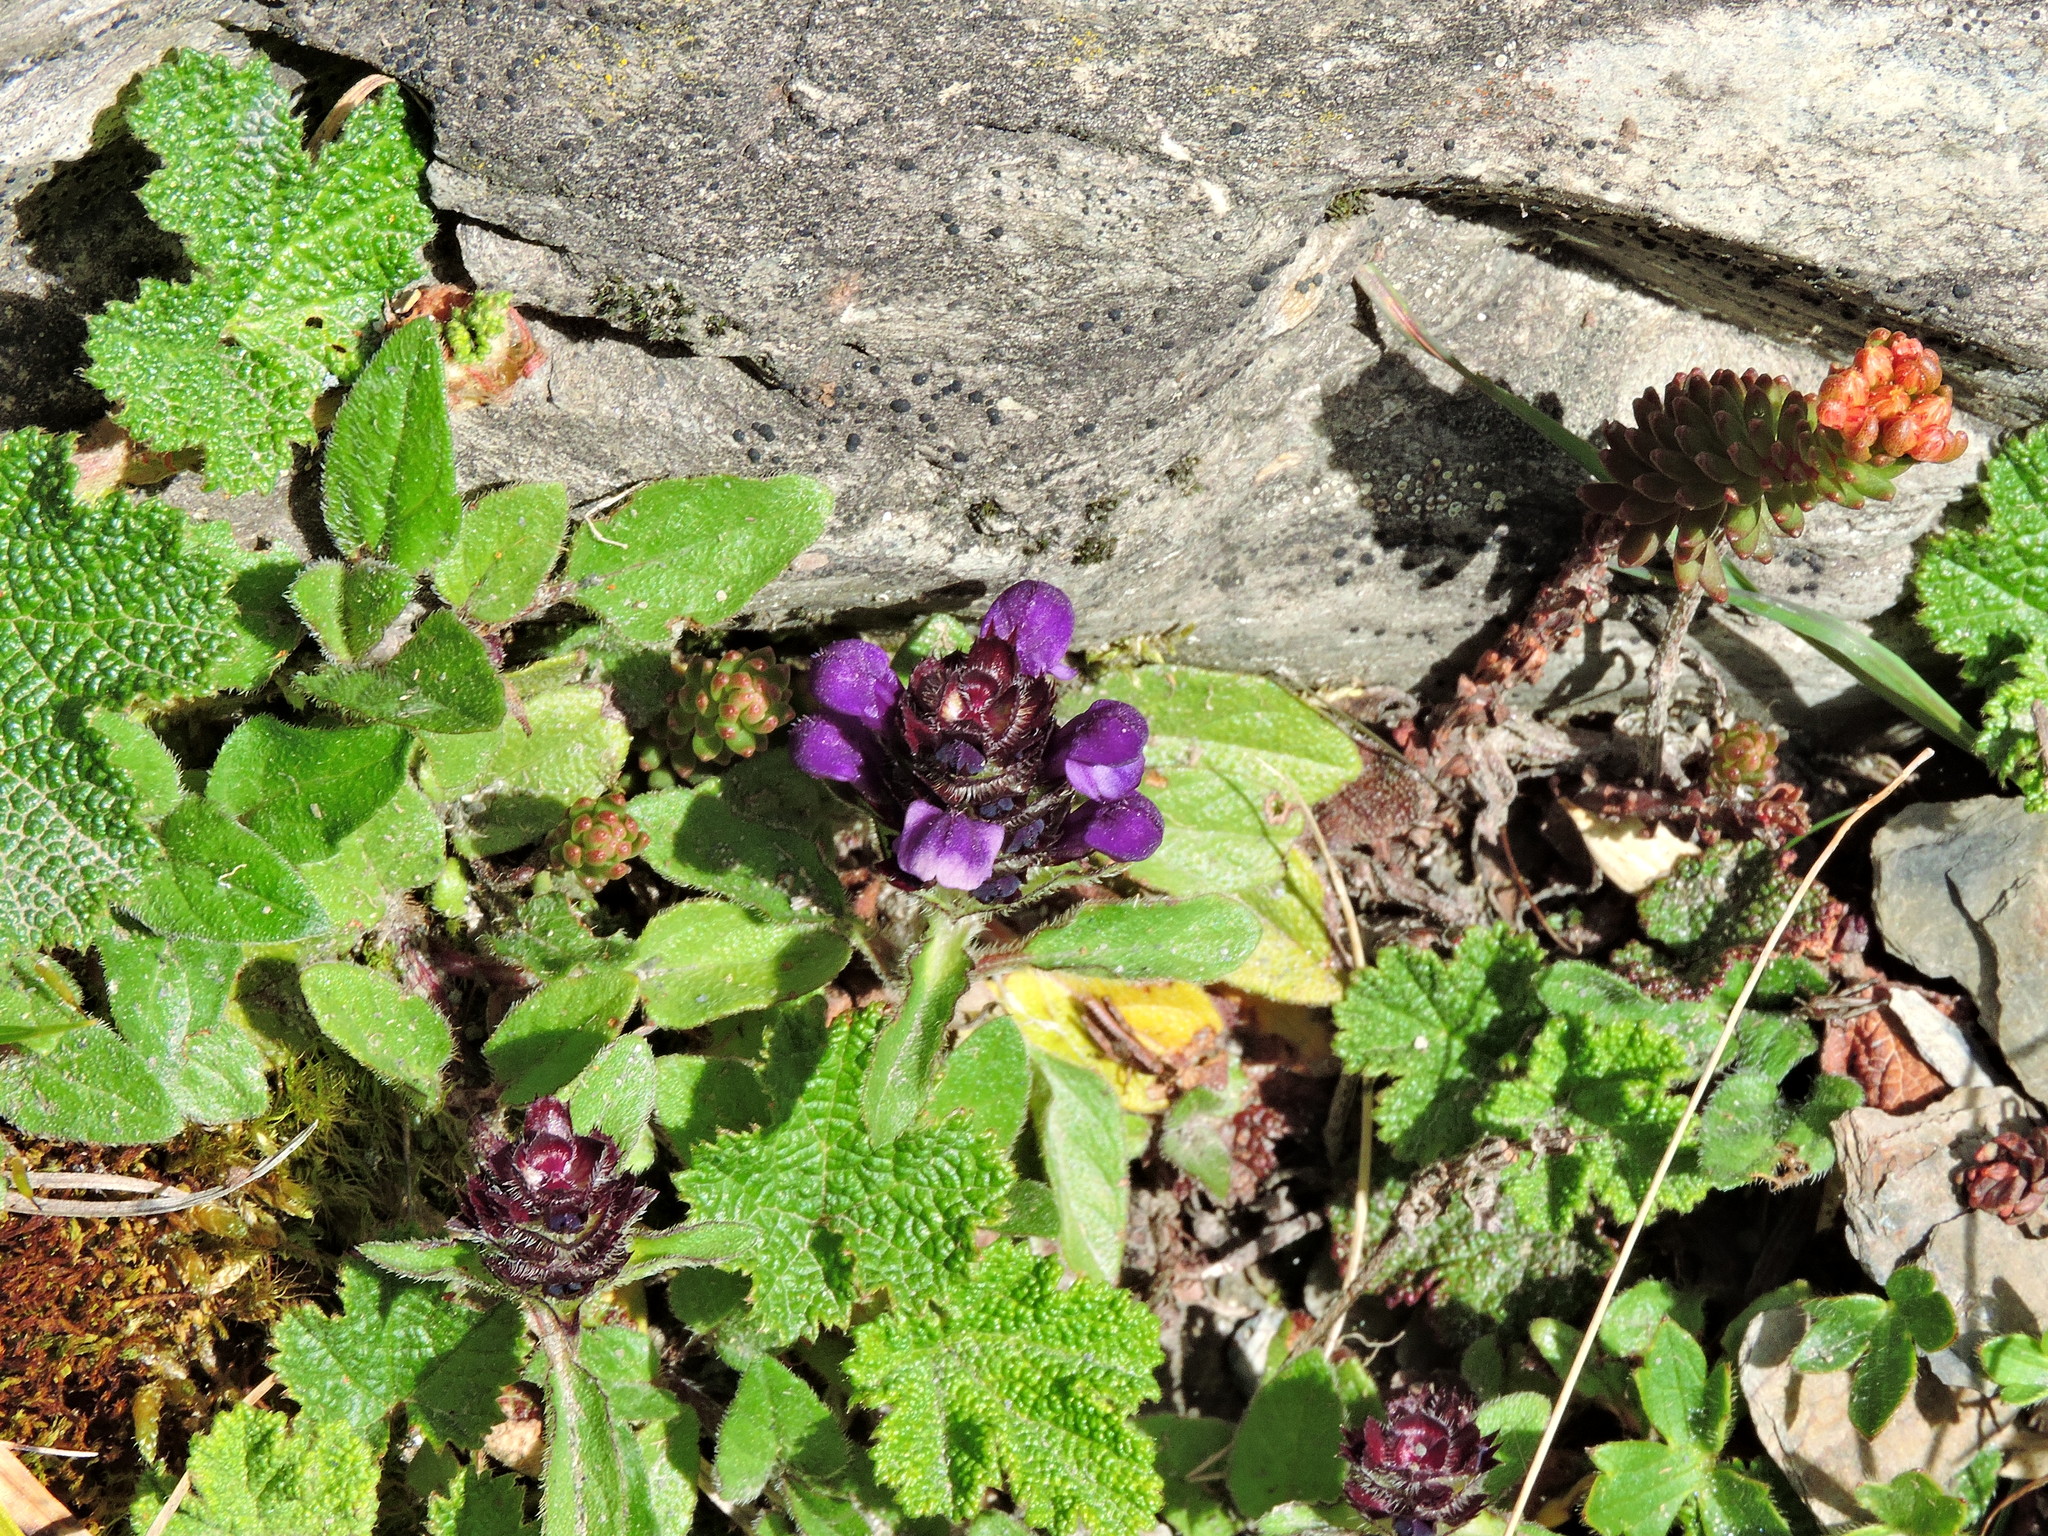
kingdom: Plantae
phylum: Tracheophyta
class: Magnoliopsida
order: Lamiales
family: Lamiaceae
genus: Prunella
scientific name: Prunella vulgaris
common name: Heal-all
